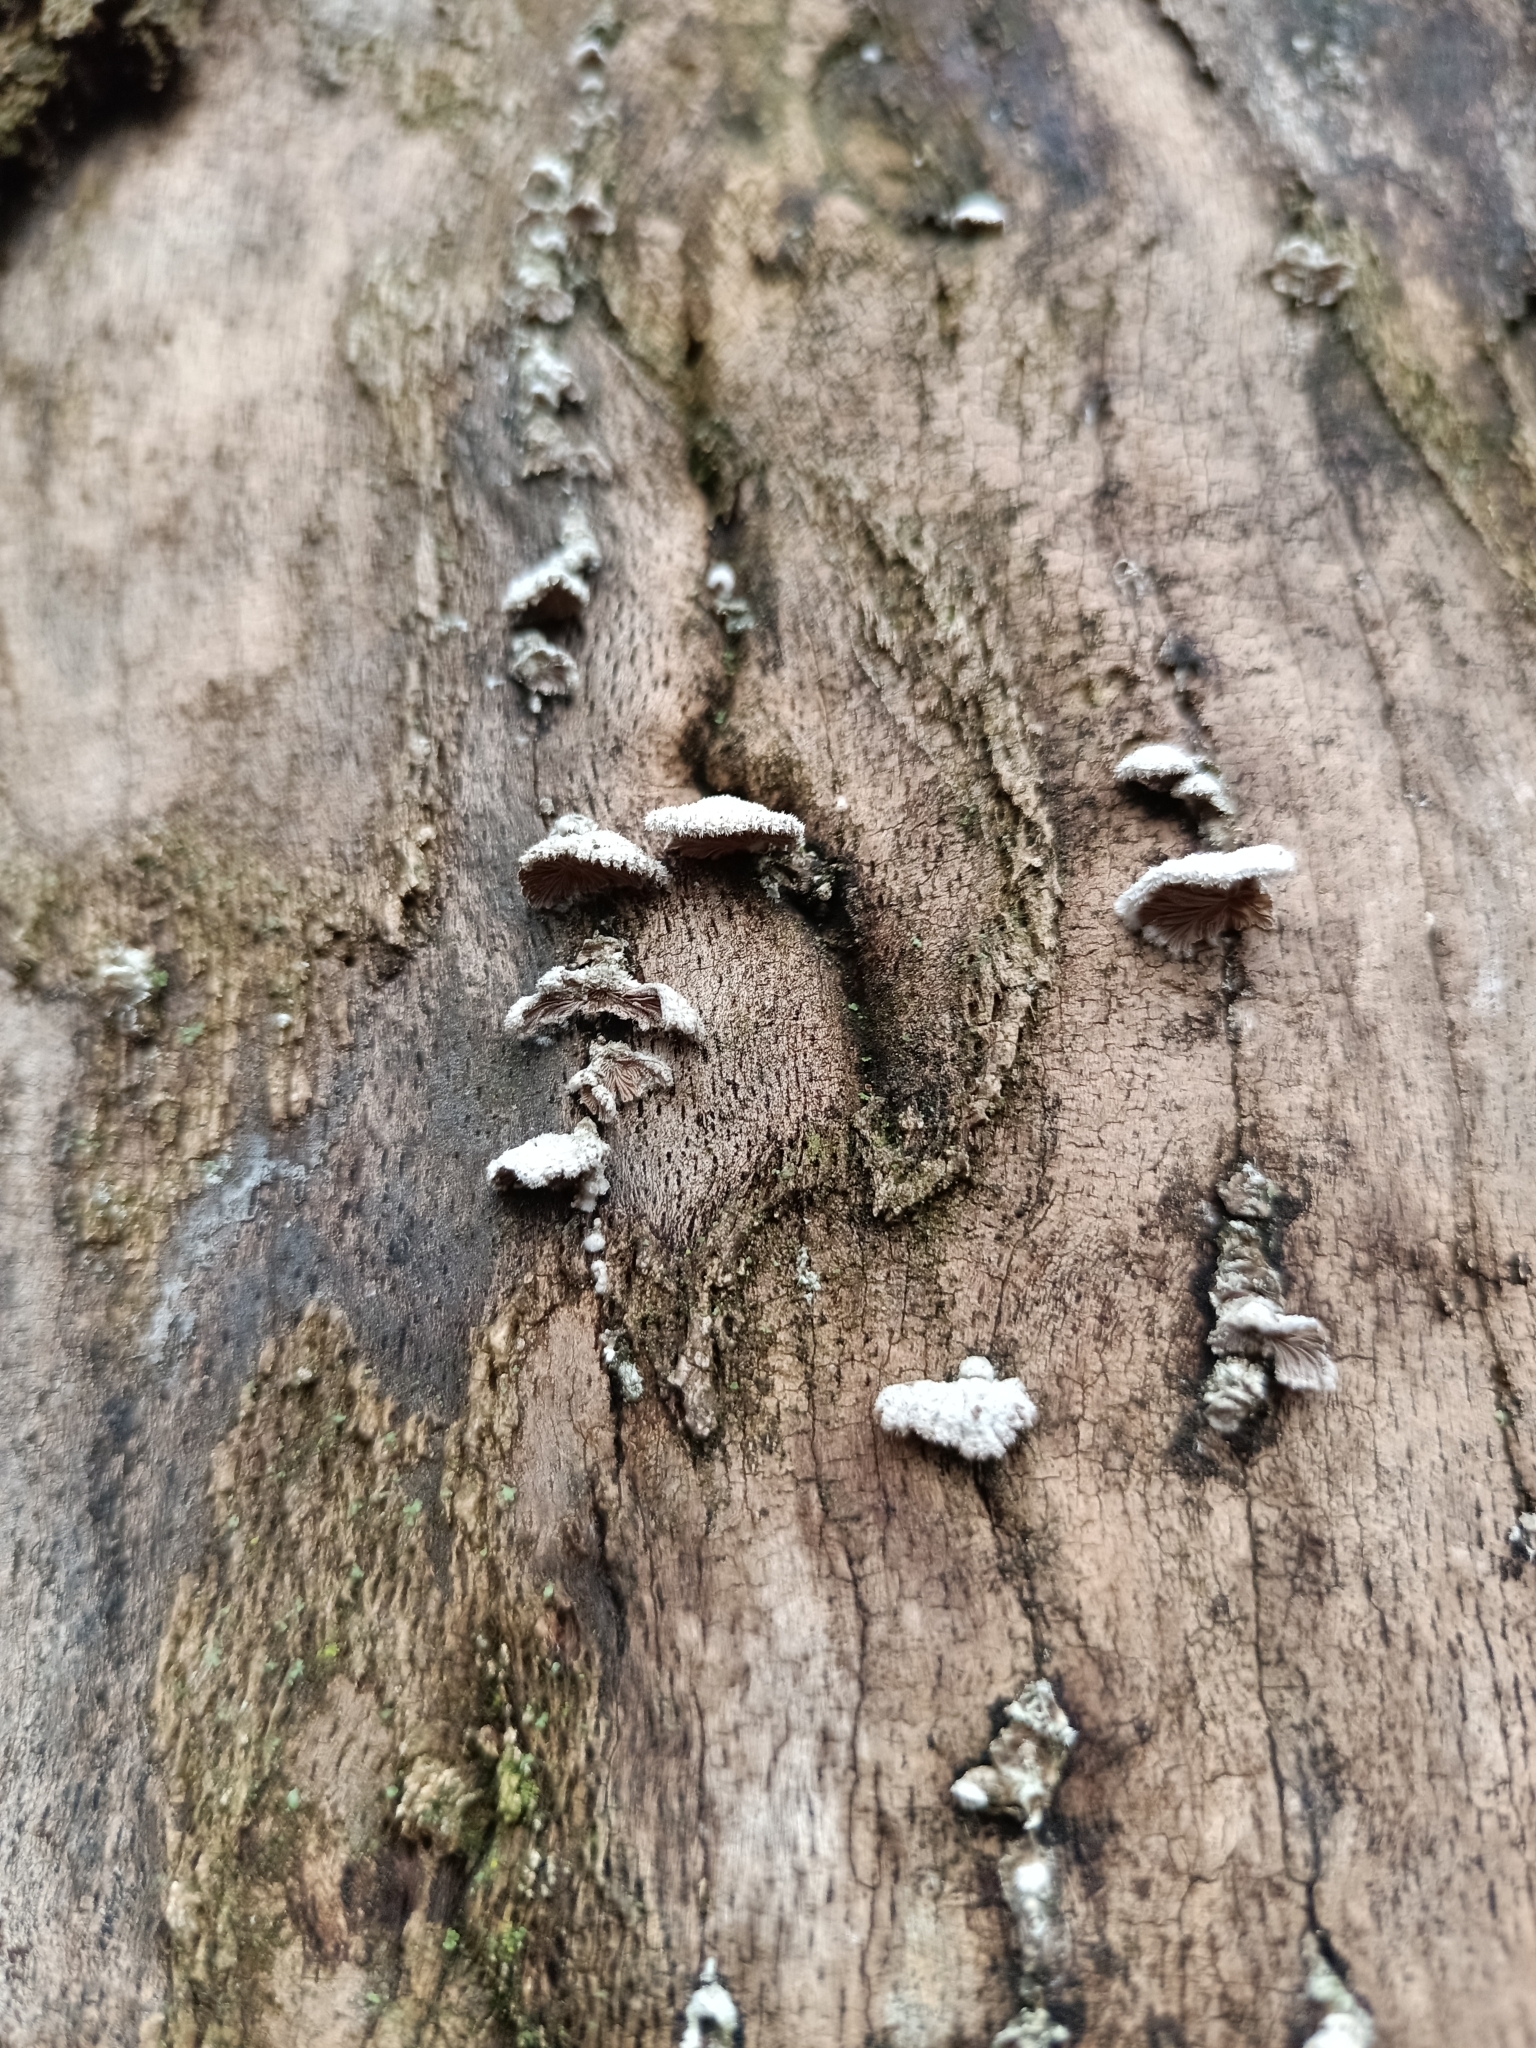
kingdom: Fungi
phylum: Basidiomycota
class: Agaricomycetes
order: Agaricales
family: Schizophyllaceae
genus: Schizophyllum
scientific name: Schizophyllum commune
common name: Common porecrust
